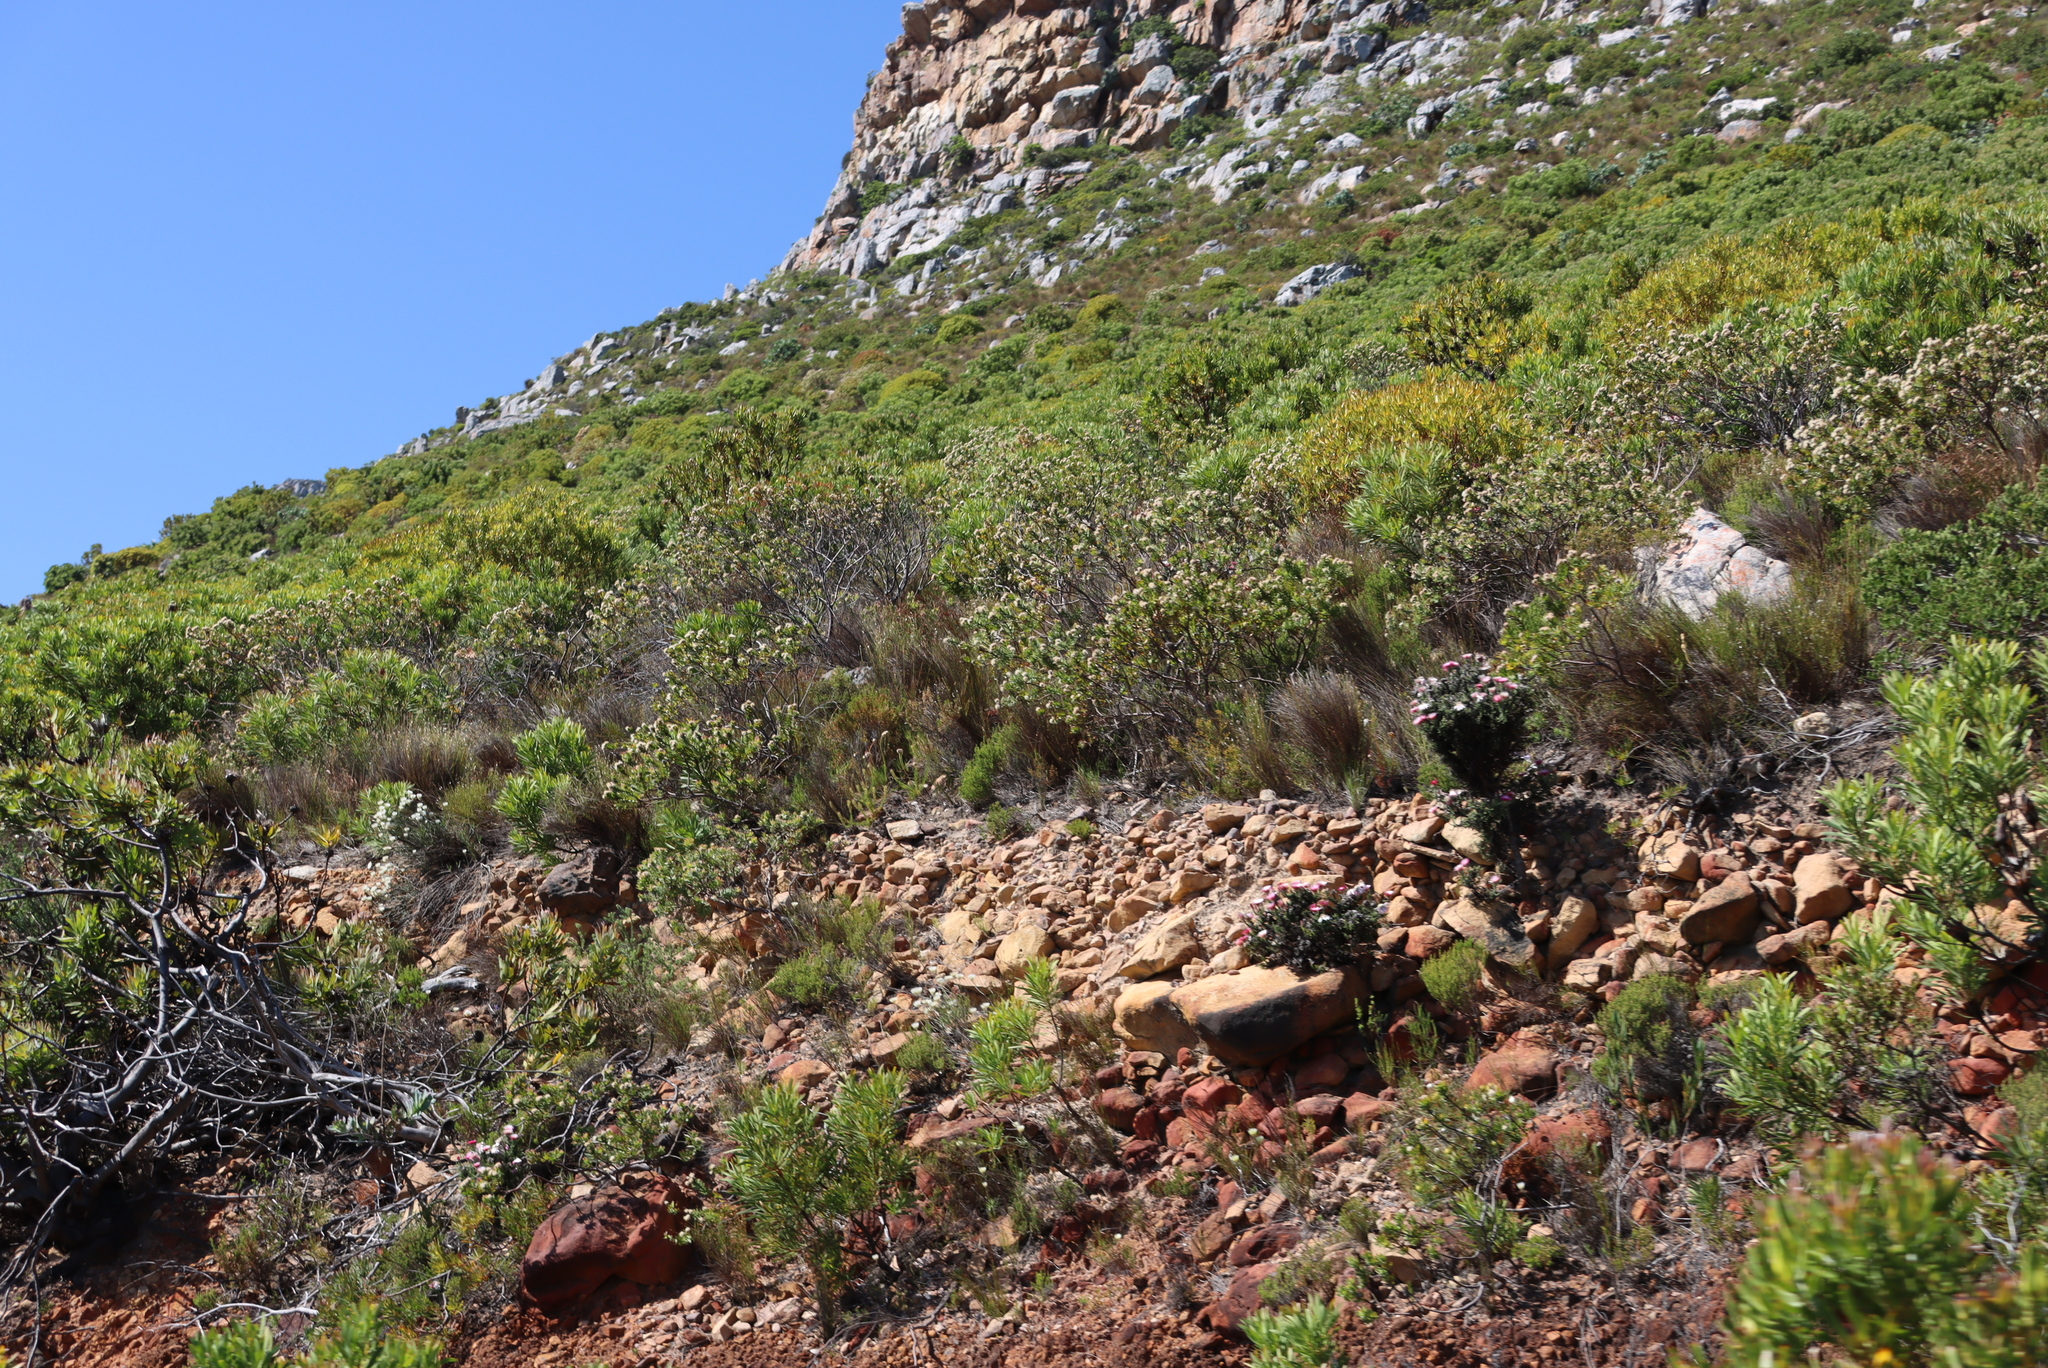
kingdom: Plantae
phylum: Tracheophyta
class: Magnoliopsida
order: Proteales
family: Proteaceae
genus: Leucospermum
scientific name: Leucospermum bolusii
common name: Gordon's bay pincushion
